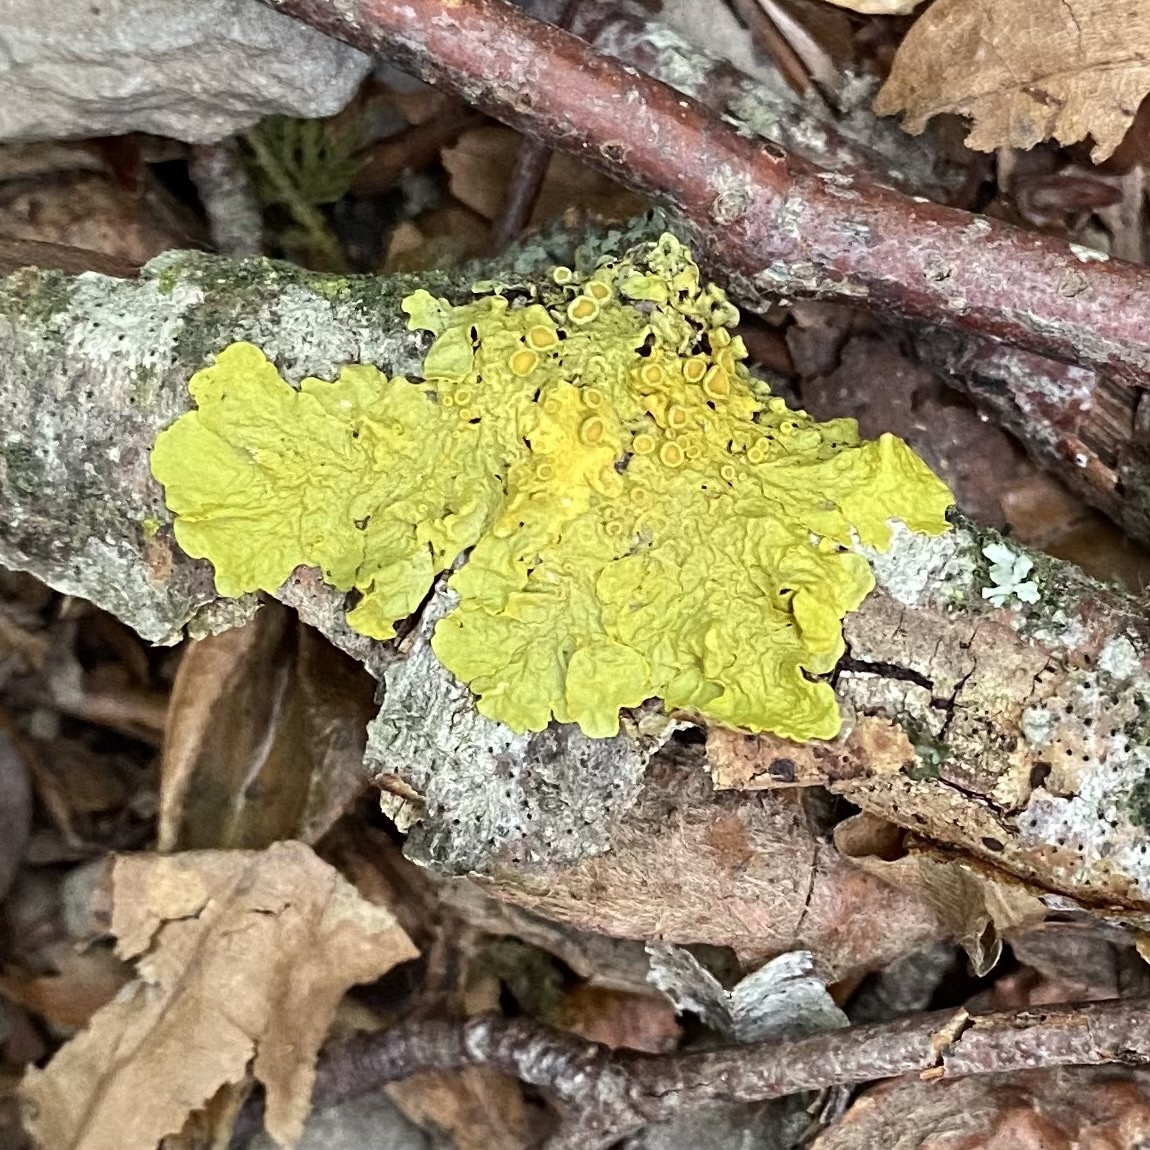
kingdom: Fungi
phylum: Ascomycota
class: Lecanoromycetes
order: Teloschistales
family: Teloschistaceae
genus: Xanthoria
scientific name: Xanthoria parietina
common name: Common orange lichen
